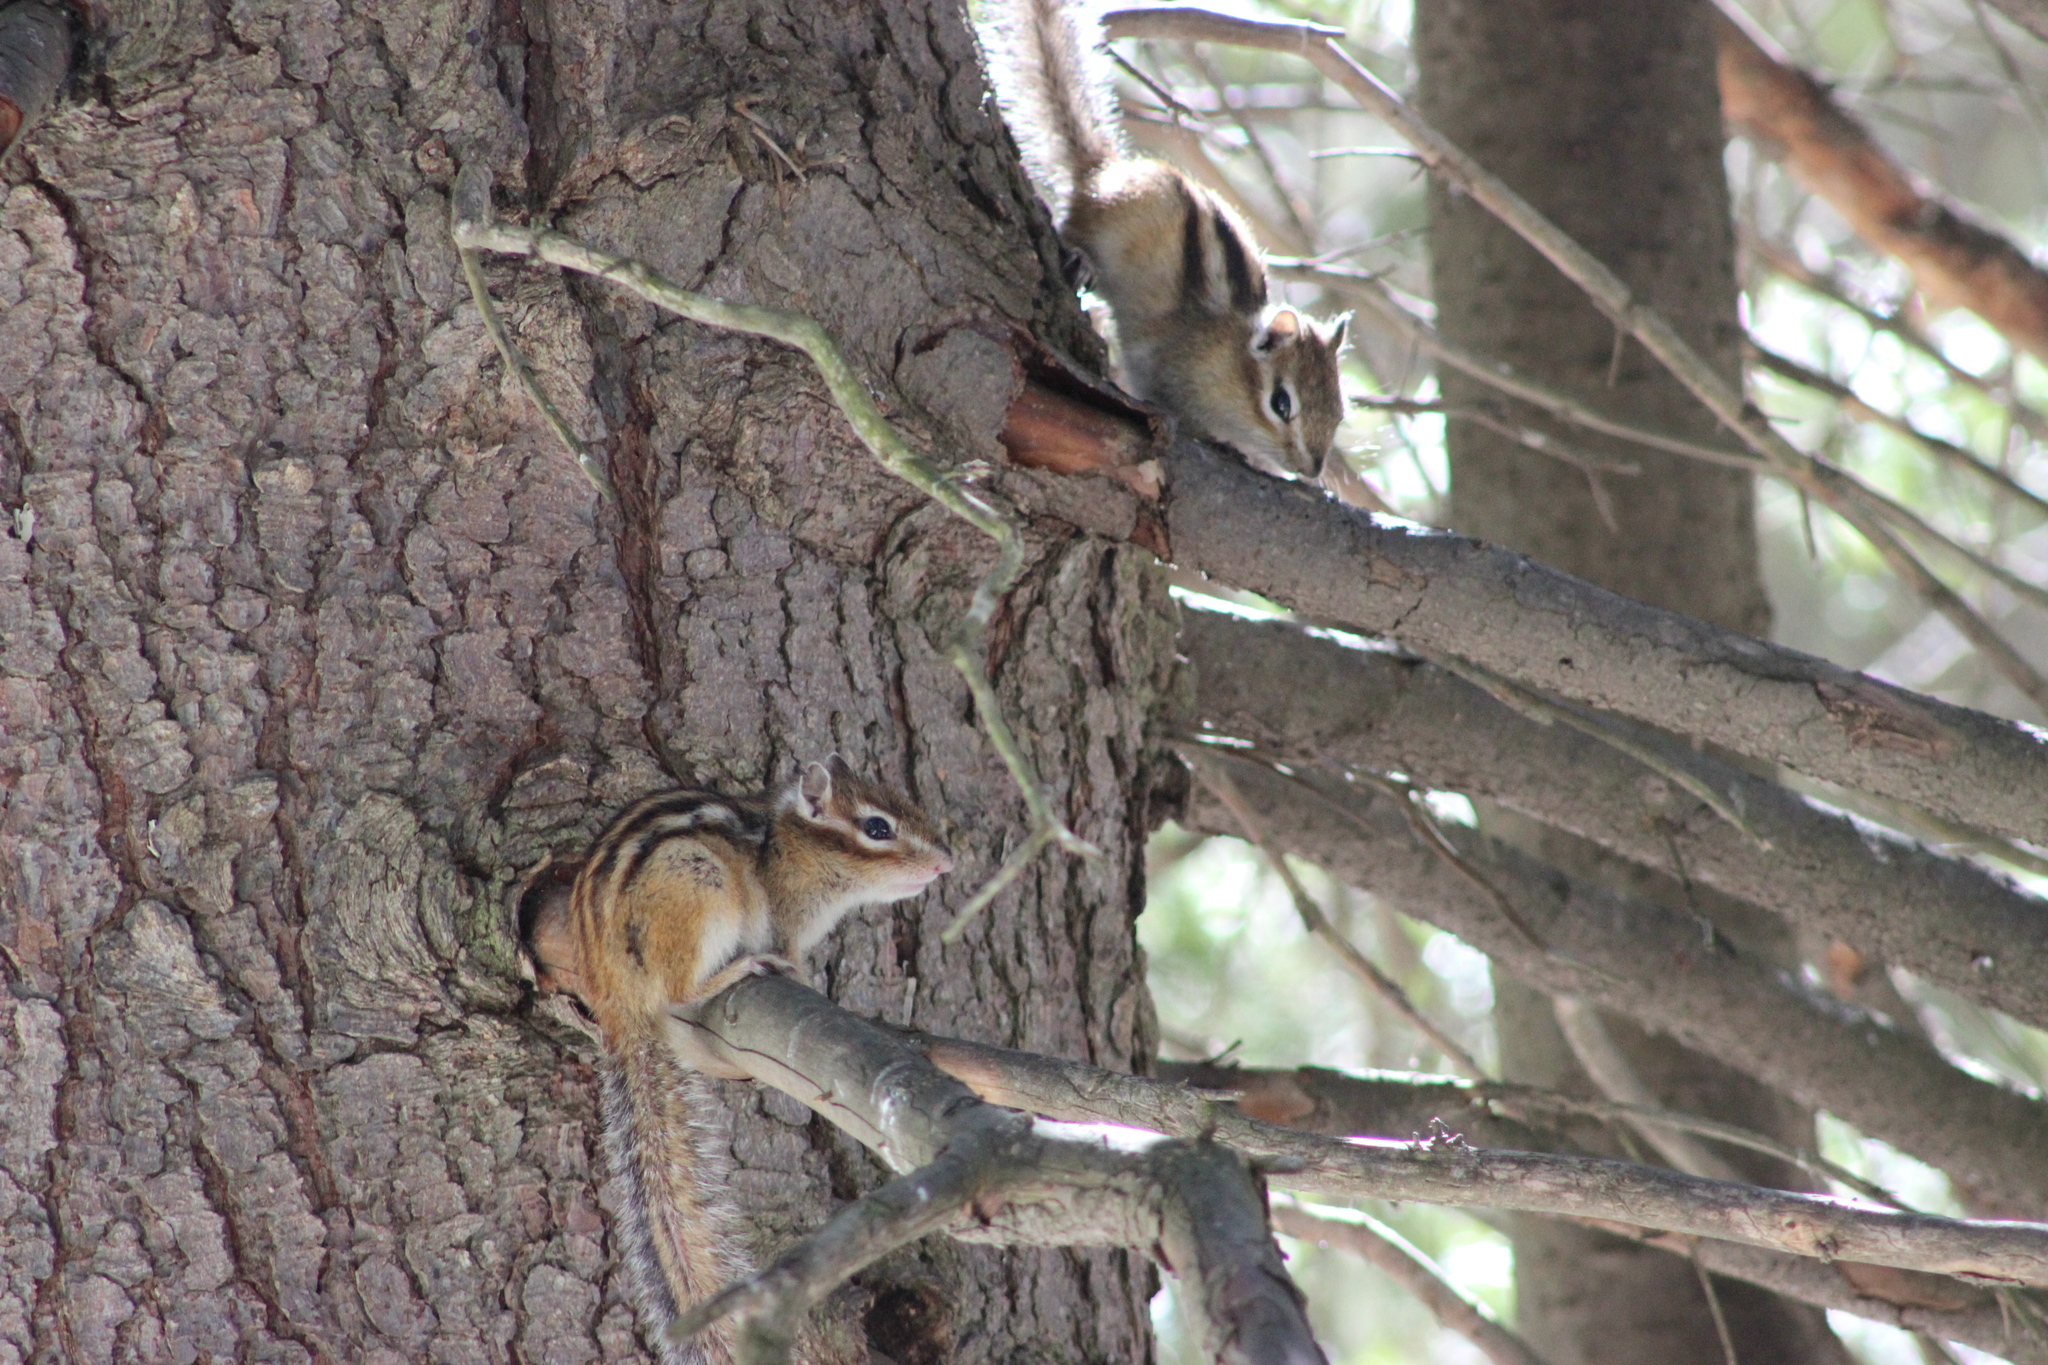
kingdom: Animalia
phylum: Chordata
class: Mammalia
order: Rodentia
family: Sciuridae
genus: Tamias
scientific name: Tamias sibiricus
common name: Siberian chipmunk
